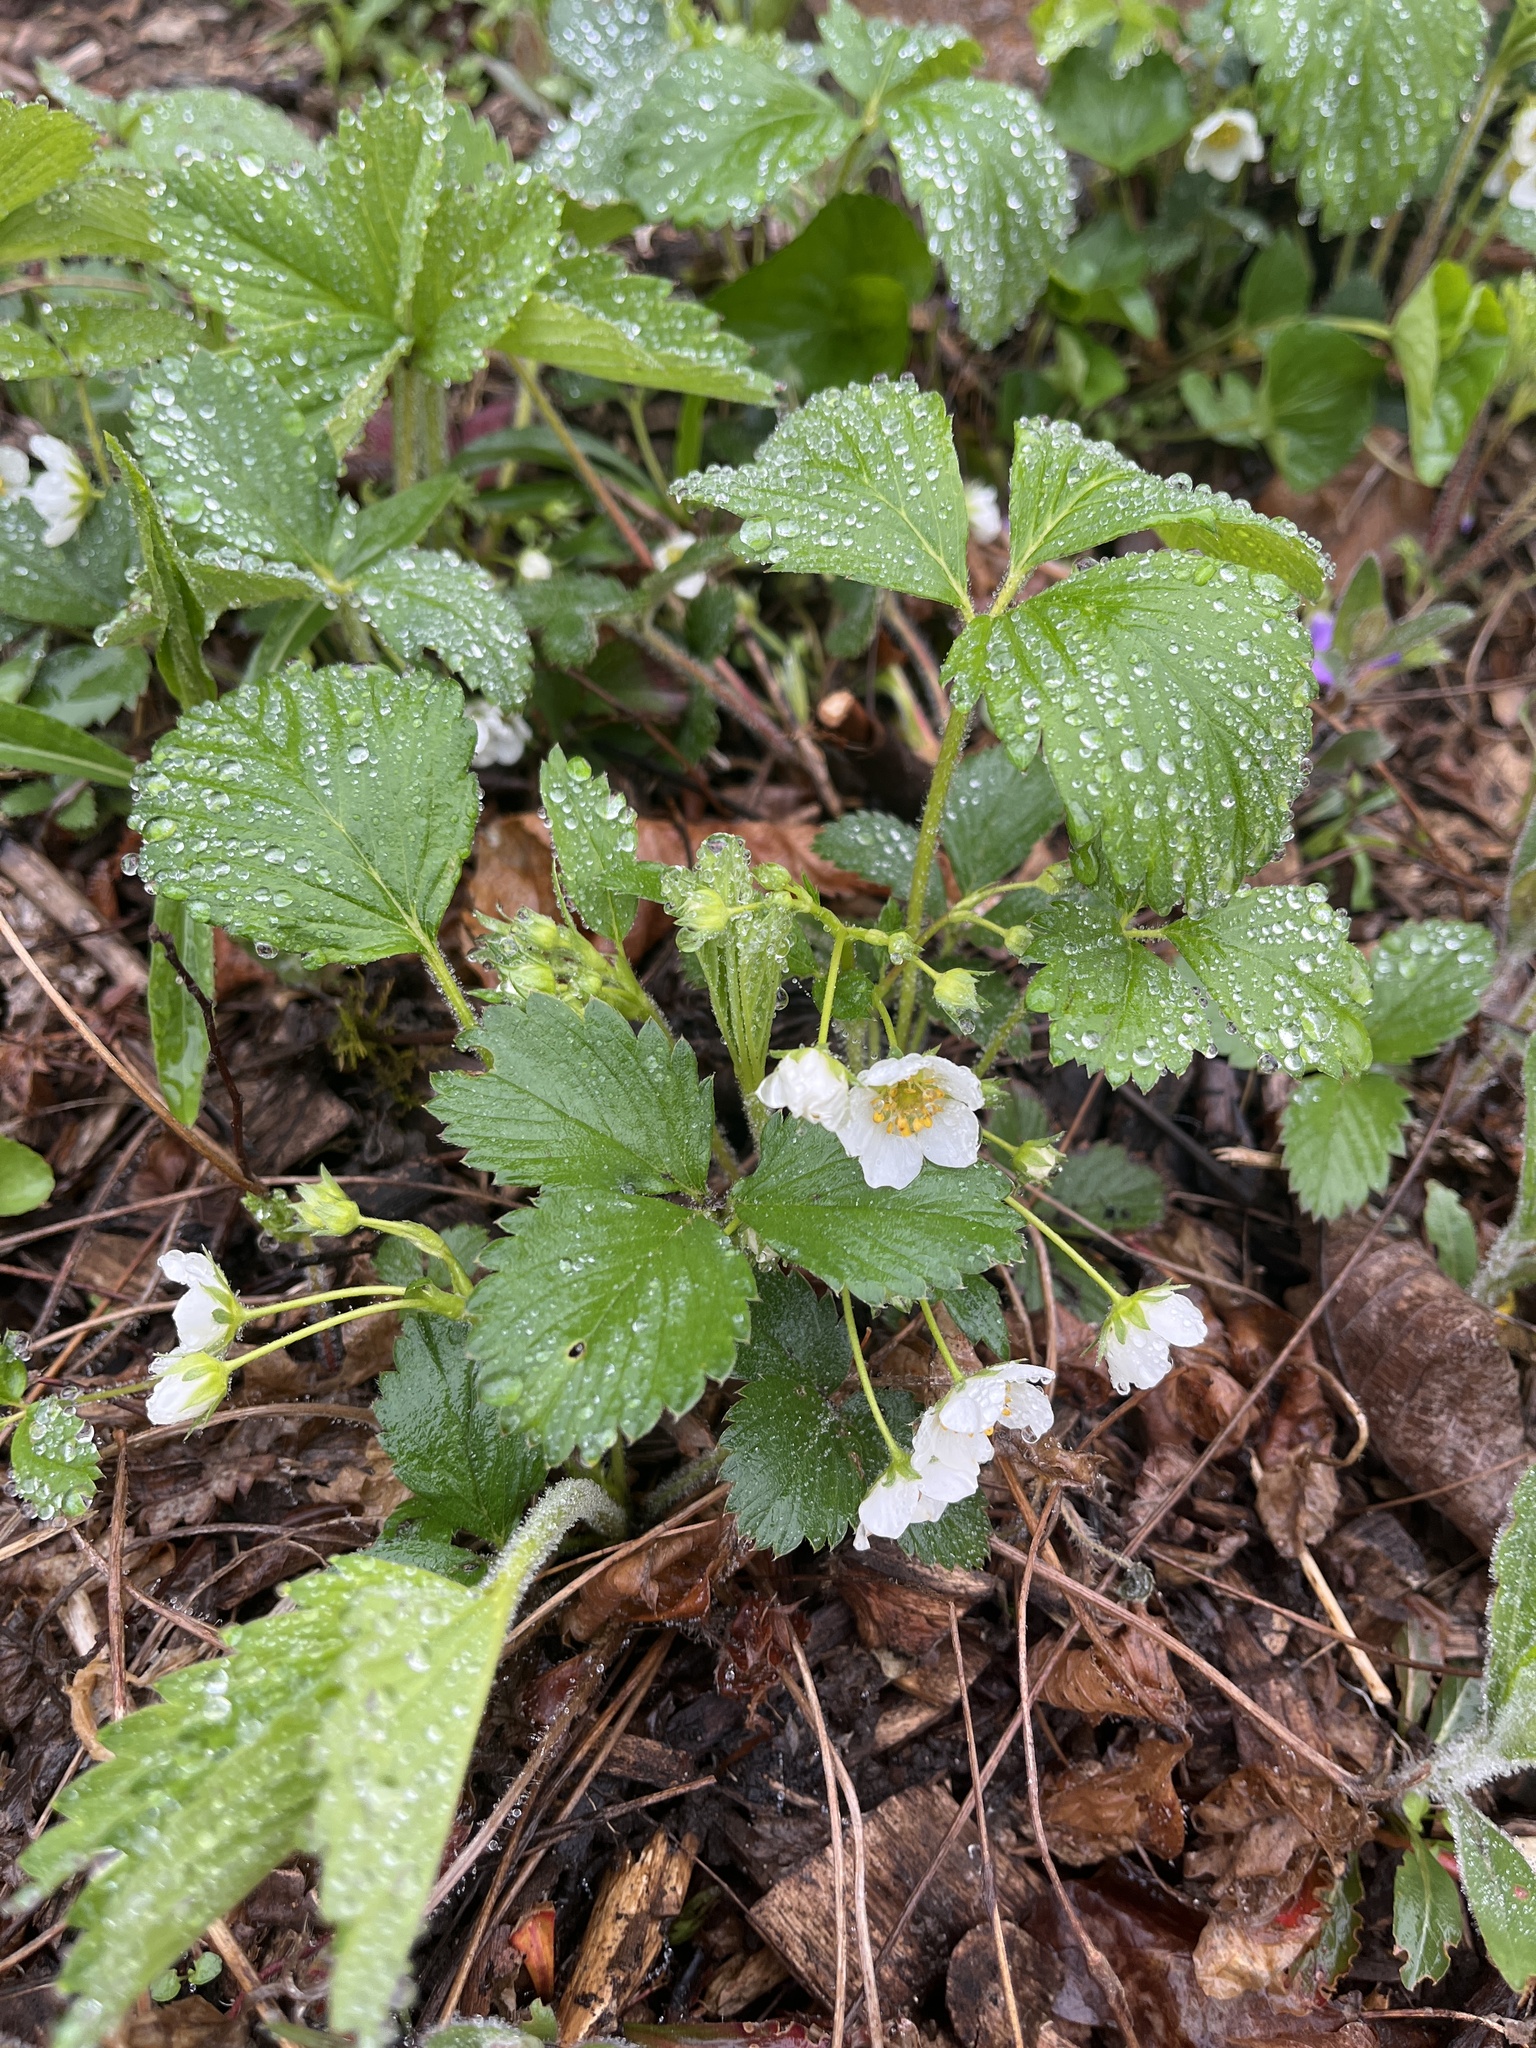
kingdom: Plantae
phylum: Tracheophyta
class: Magnoliopsida
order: Rosales
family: Rosaceae
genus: Fragaria
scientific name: Fragaria virginiana
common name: Thickleaved wild strawberry
